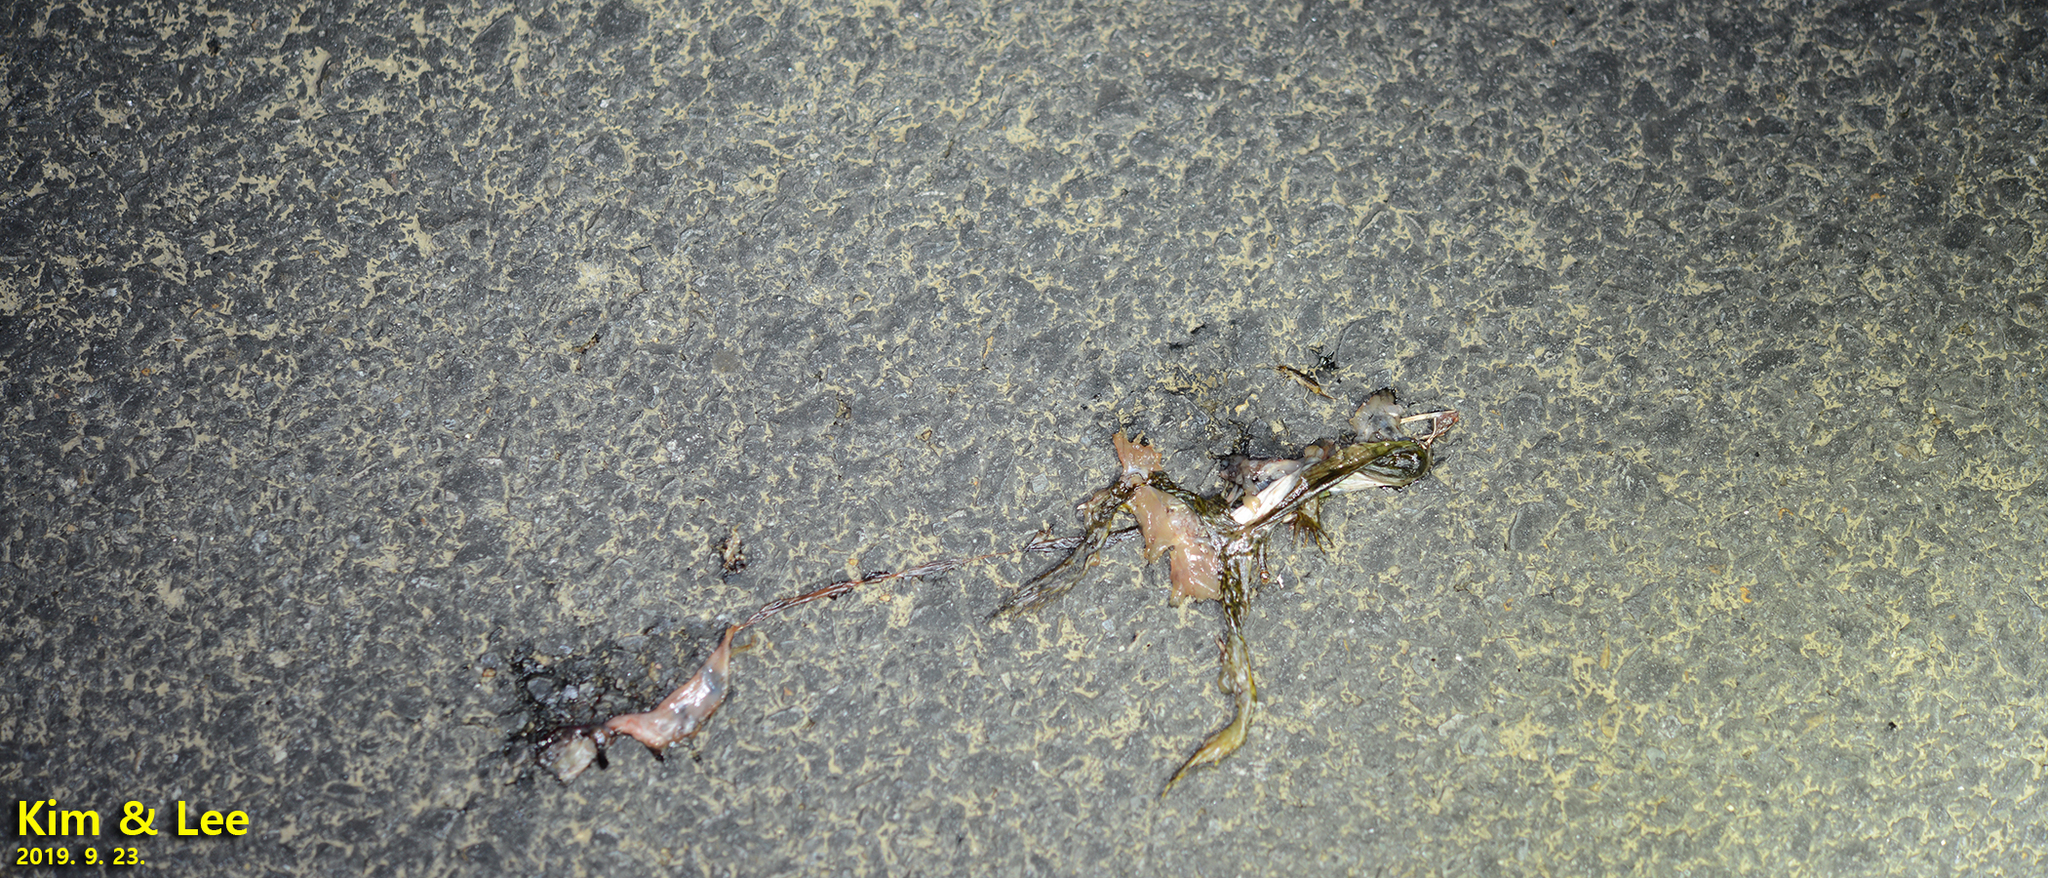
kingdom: Animalia
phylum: Chordata
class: Amphibia
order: Anura
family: Ranidae
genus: Lithobates
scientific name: Lithobates catesbeianus
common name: American bullfrog
